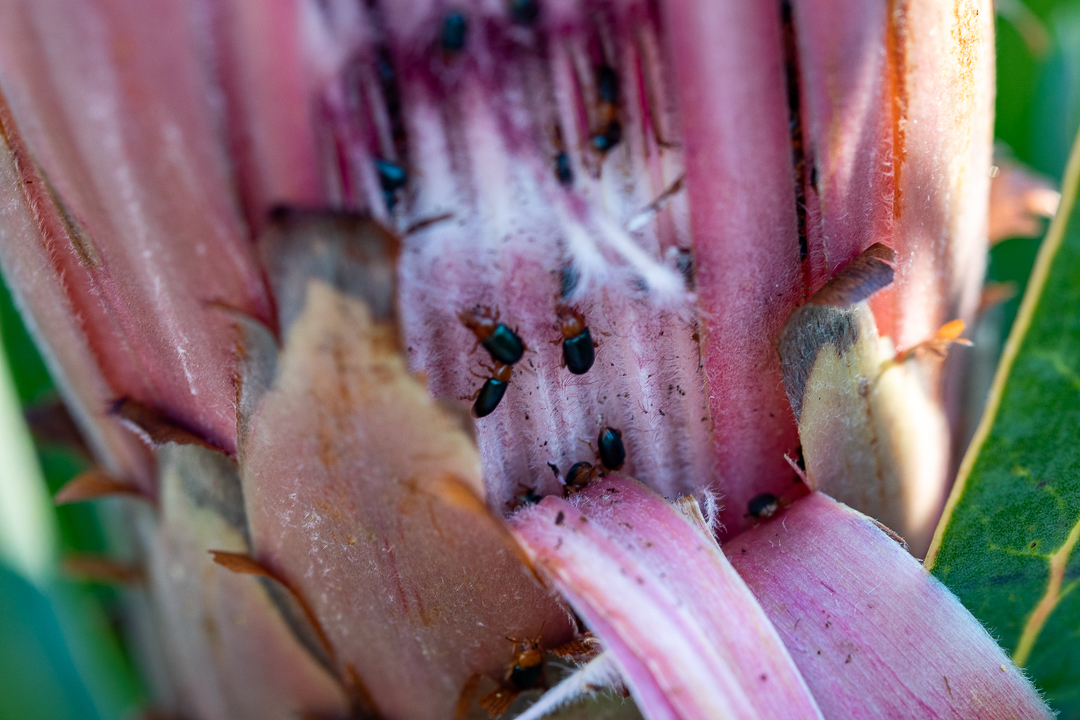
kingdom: Animalia
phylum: Arthropoda
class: Insecta
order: Coleoptera
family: Chrysomelidae
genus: Chirodica
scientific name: Chirodica
